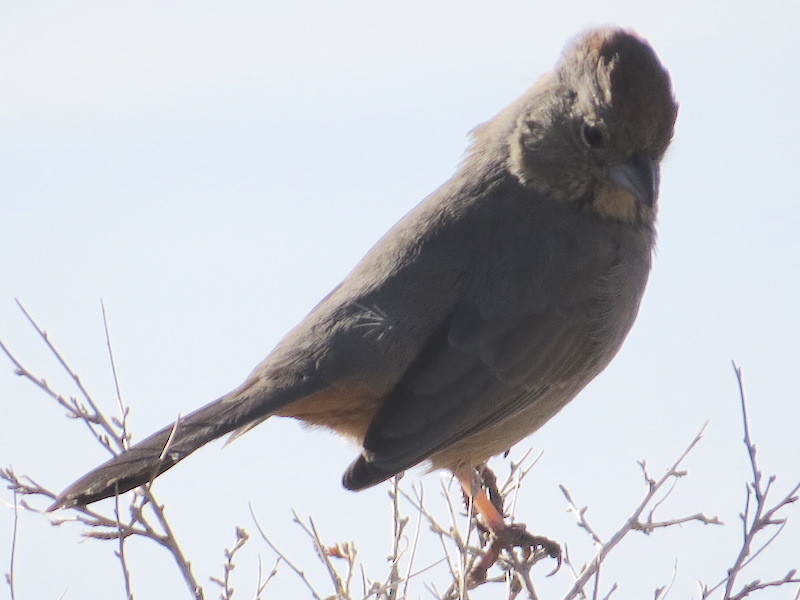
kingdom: Animalia
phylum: Chordata
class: Aves
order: Passeriformes
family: Passerellidae
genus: Melozone
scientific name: Melozone fusca
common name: Canyon towhee
